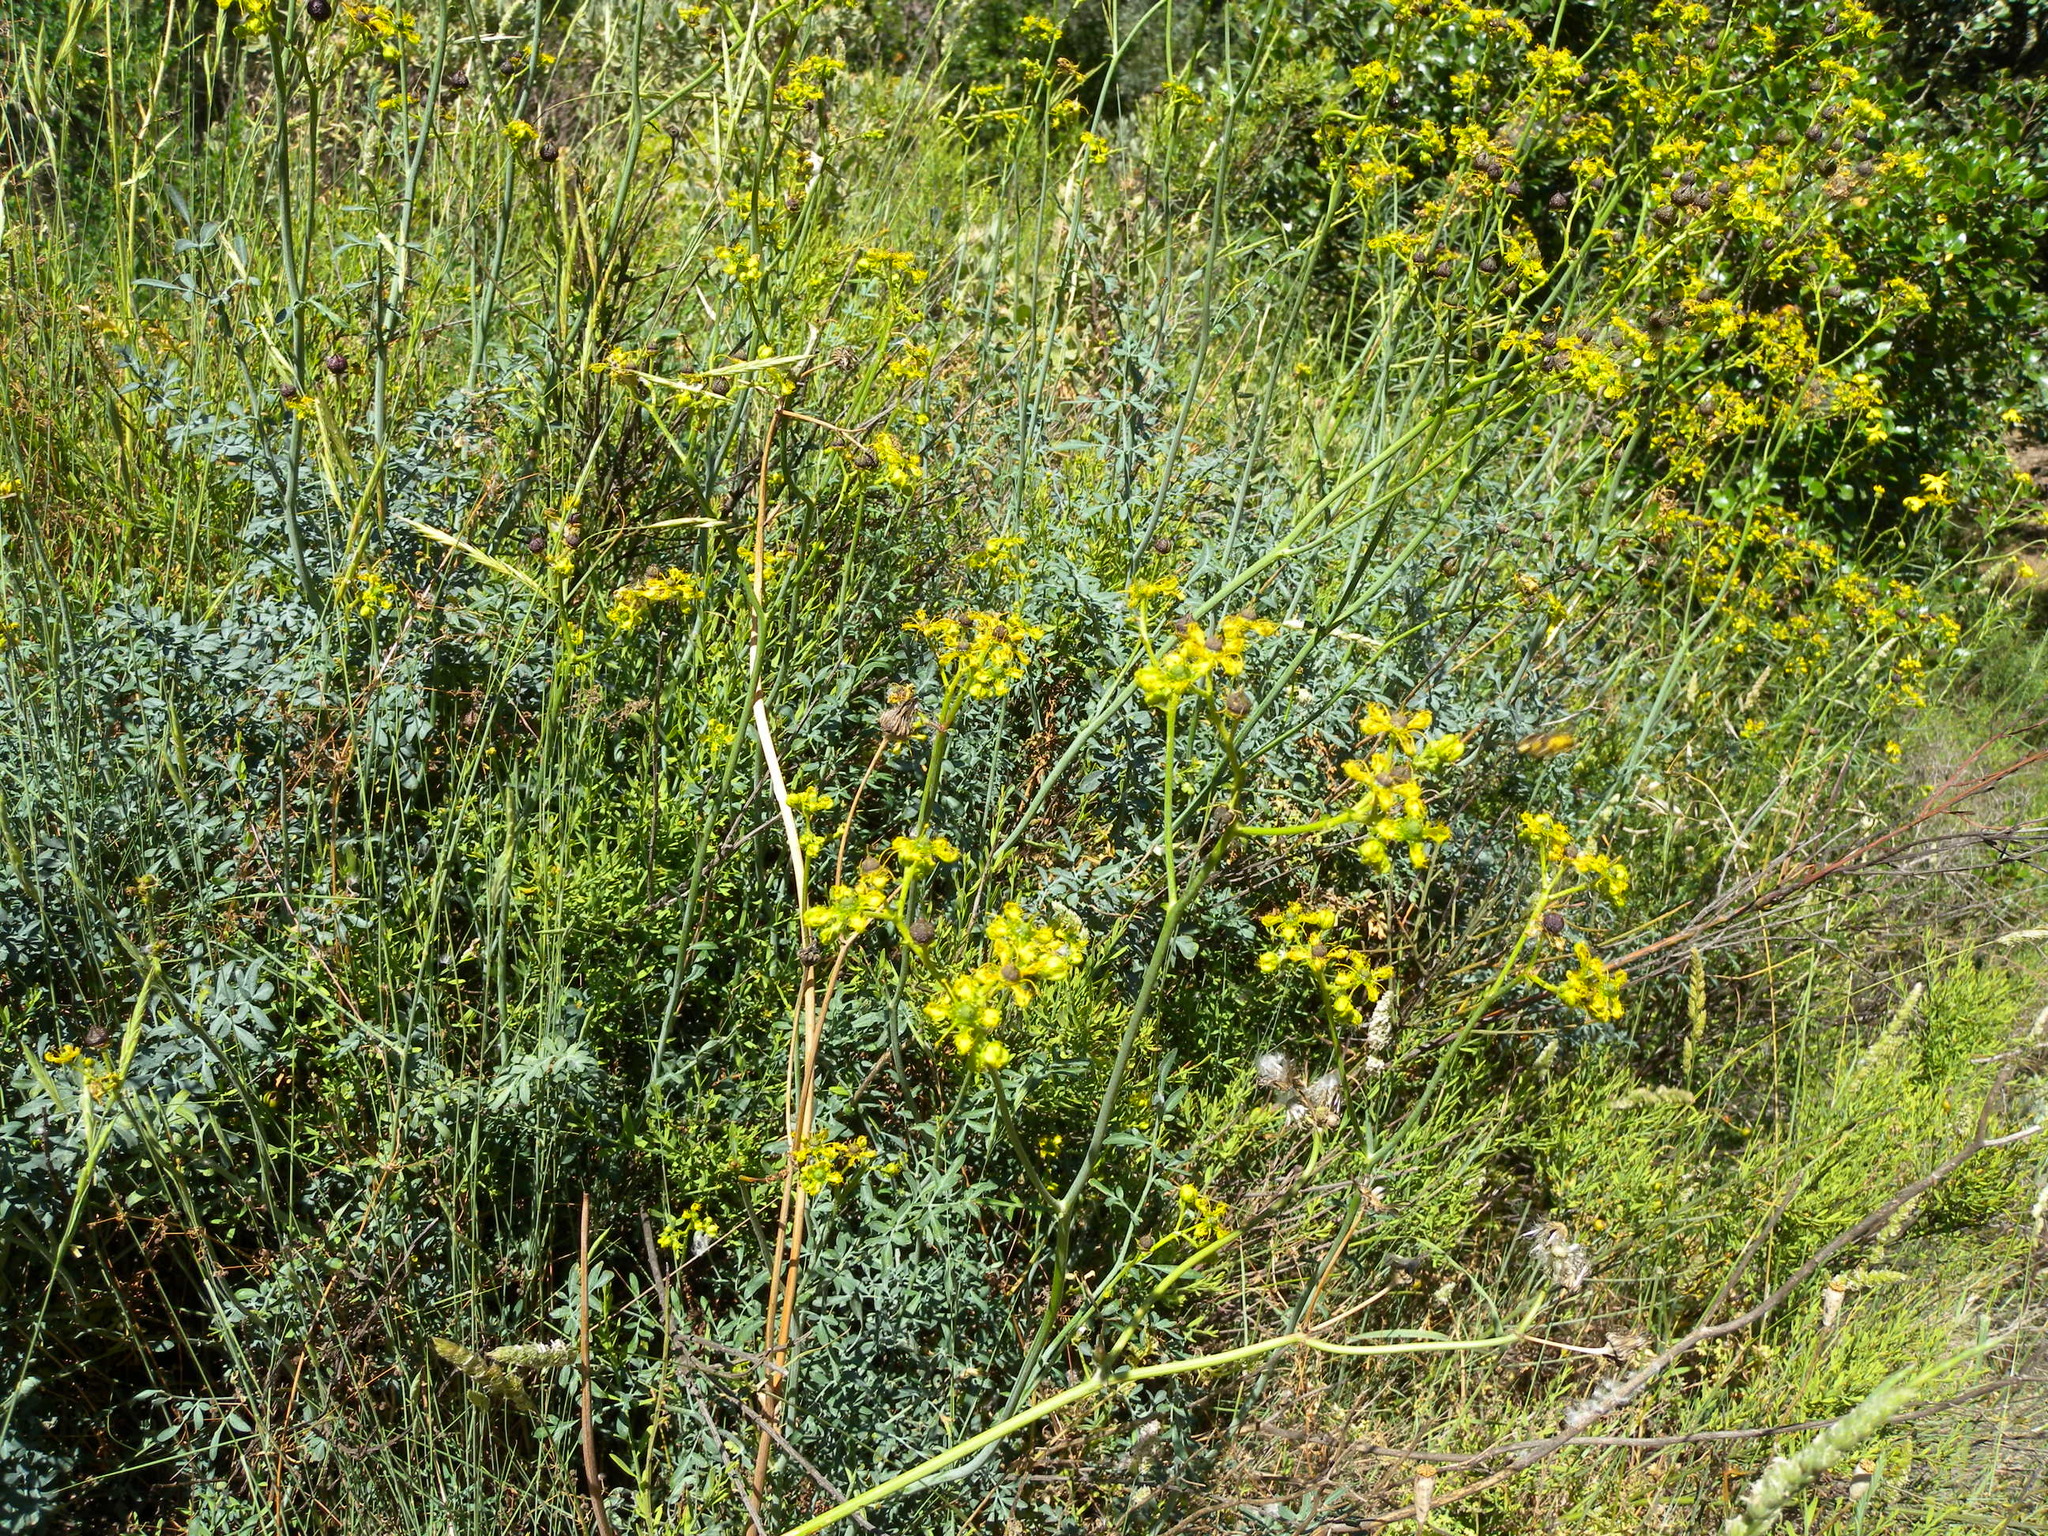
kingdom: Plantae
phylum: Tracheophyta
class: Magnoliopsida
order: Sapindales
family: Rutaceae
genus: Ruta
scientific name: Ruta angustifolia
